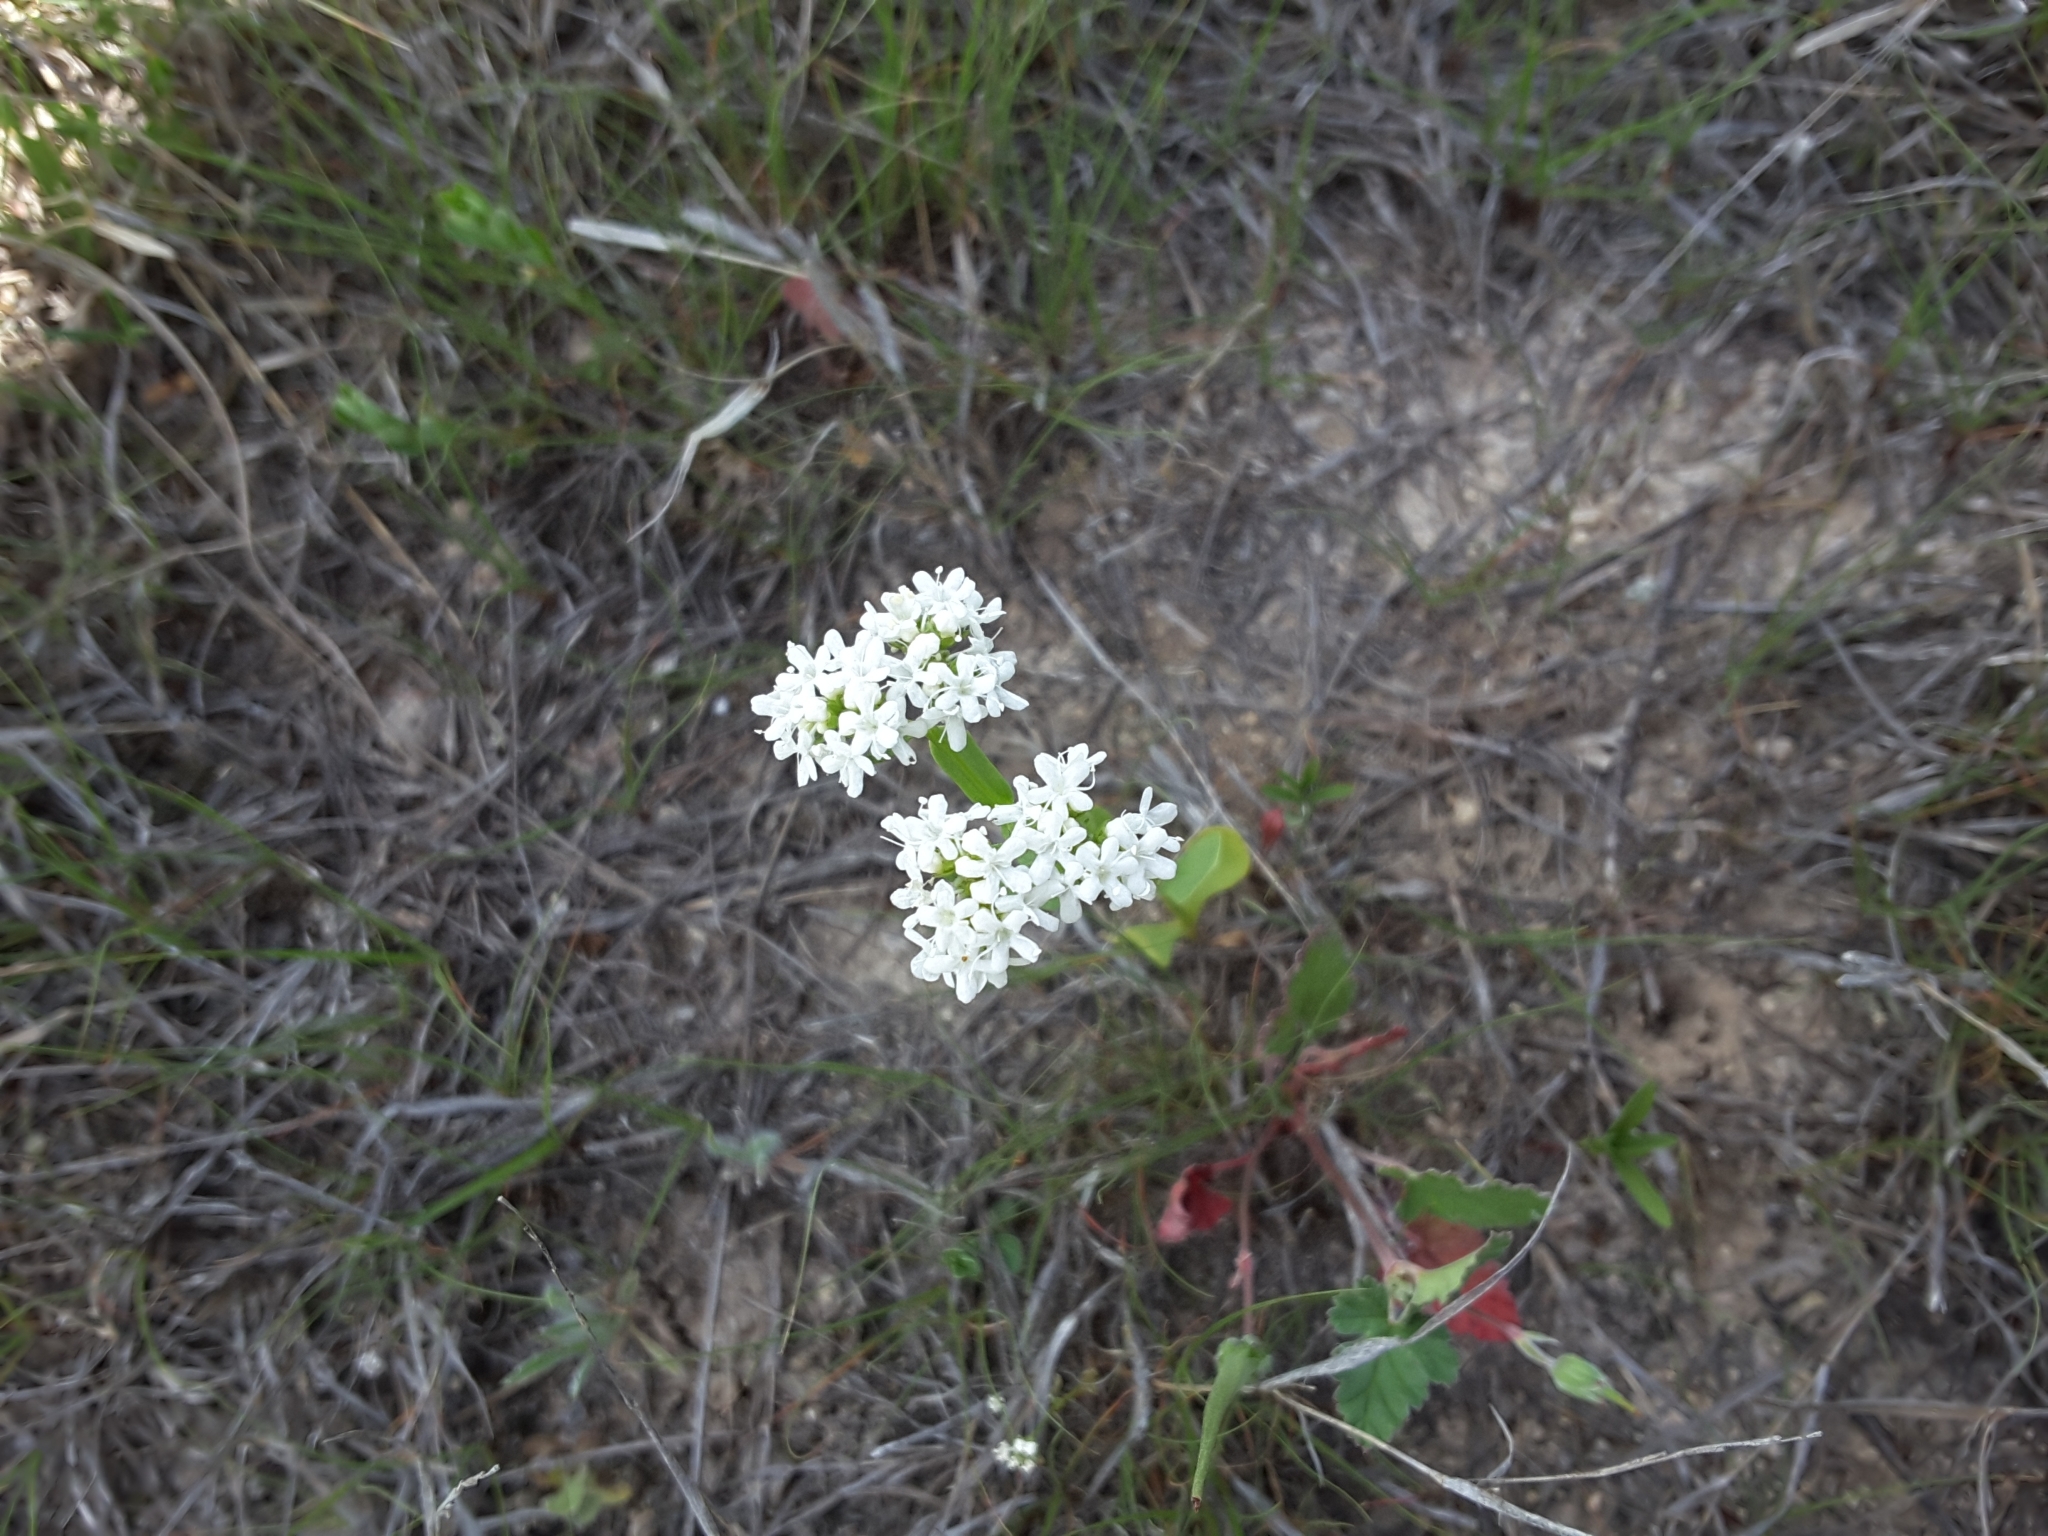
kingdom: Plantae
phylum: Tracheophyta
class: Magnoliopsida
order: Dipsacales
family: Caprifoliaceae
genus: Valerianella
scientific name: Valerianella amarella
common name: Hariy cornsalad
